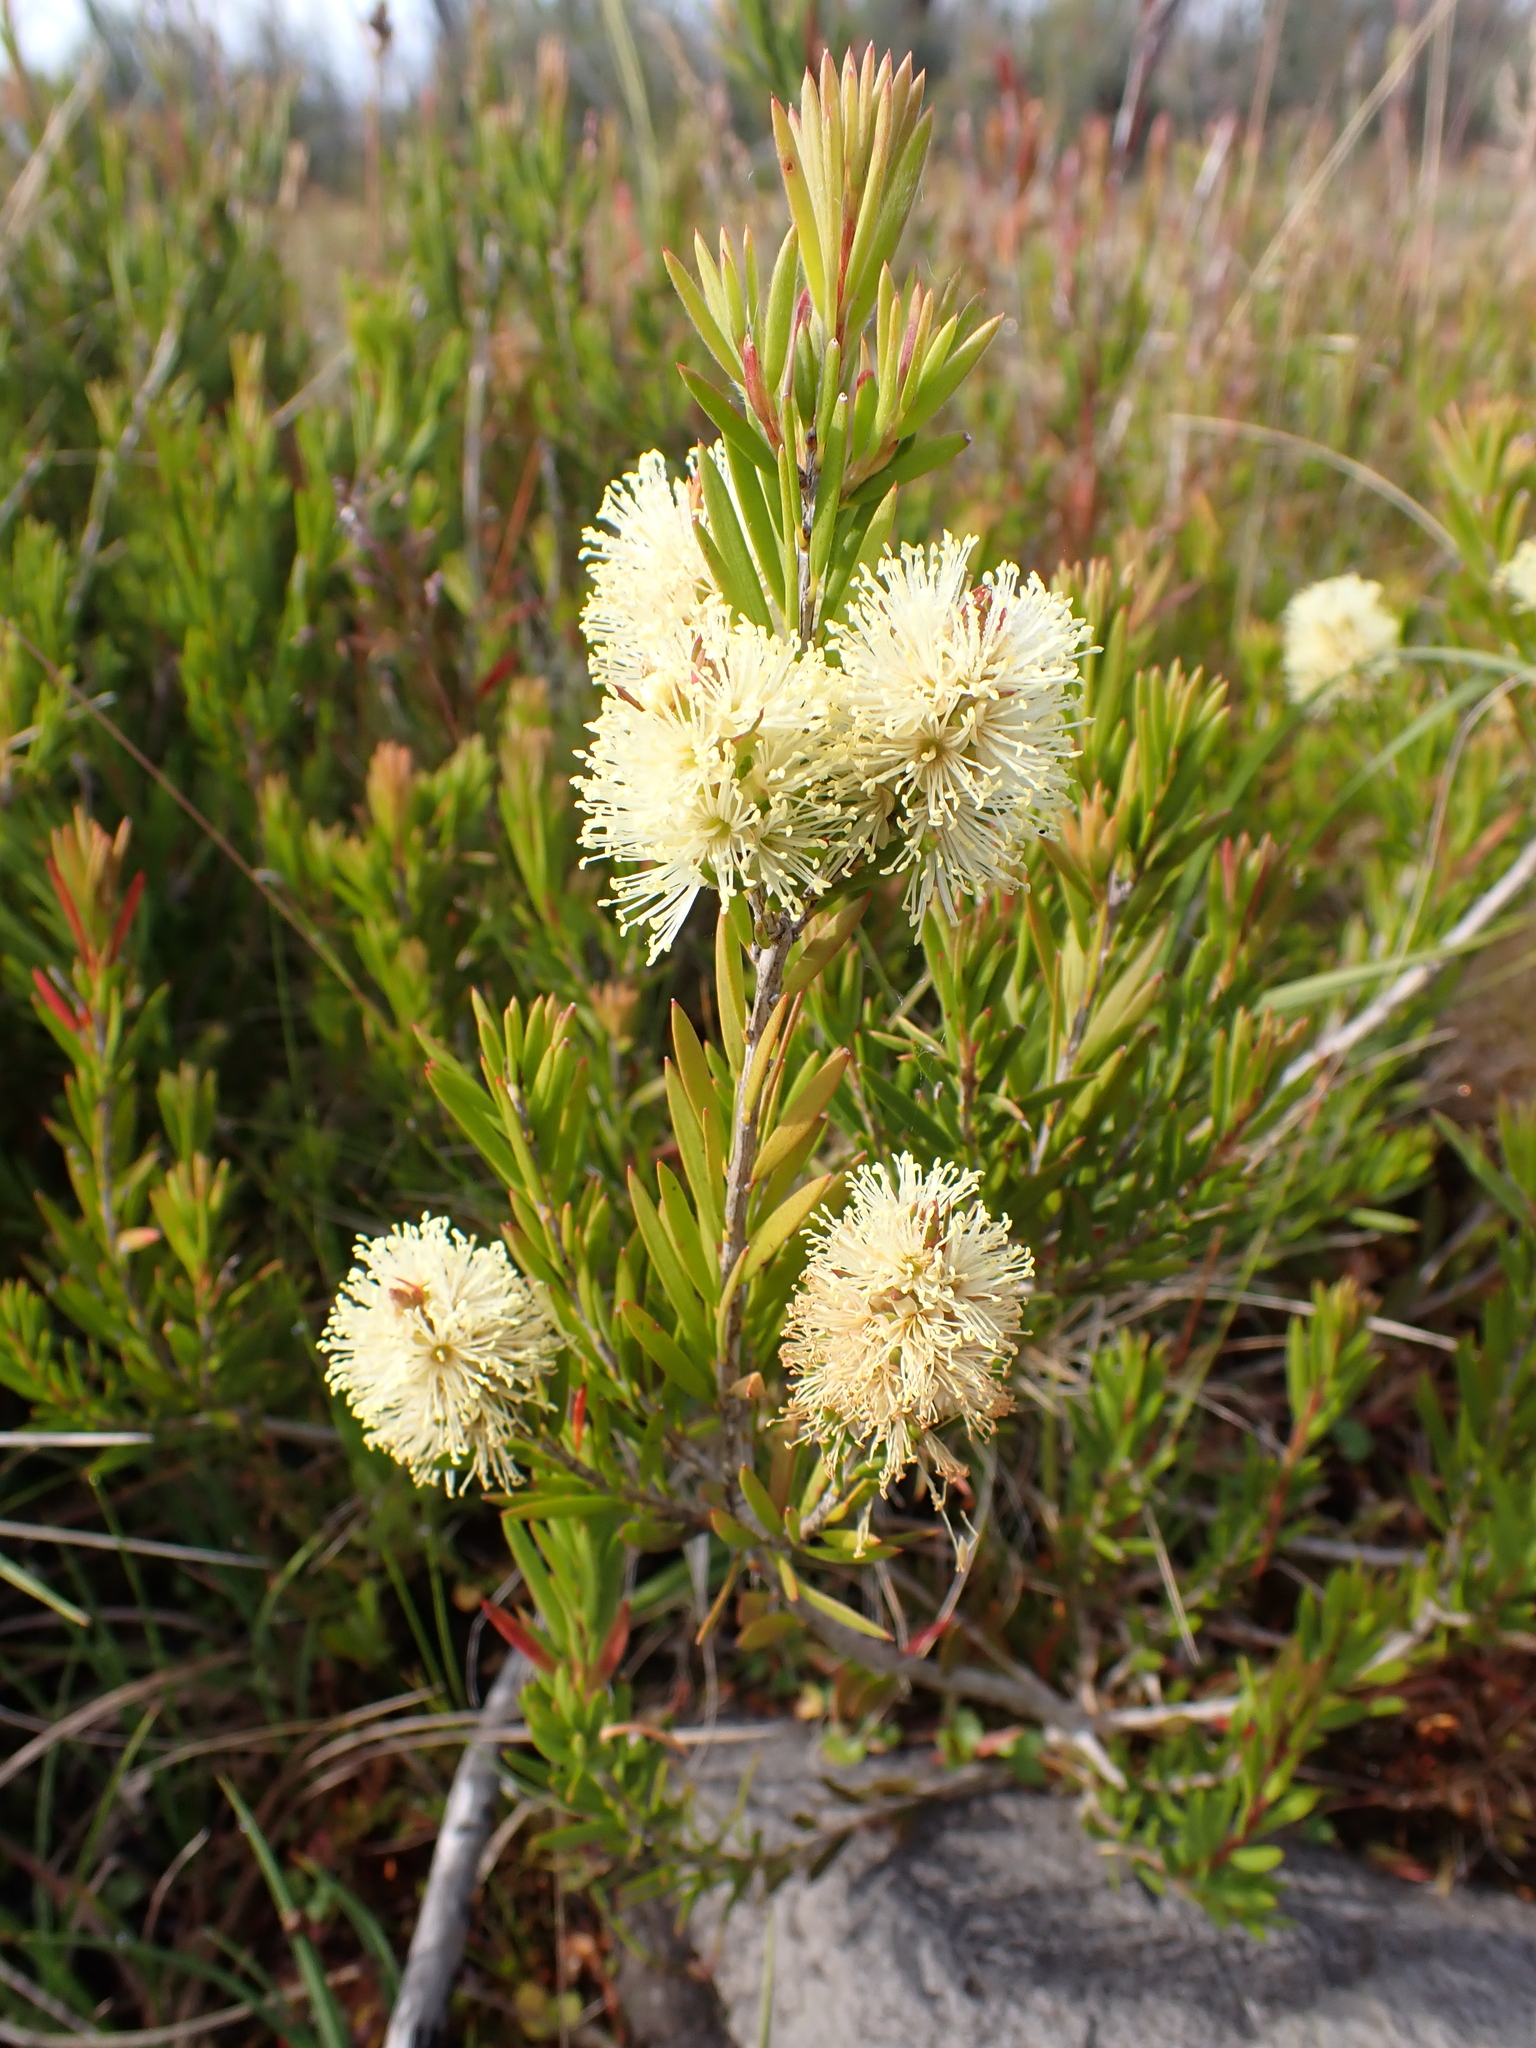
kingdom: Plantae
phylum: Tracheophyta
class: Magnoliopsida
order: Myrtales
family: Myrtaceae
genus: Callistemon
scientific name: Callistemon pityoides
